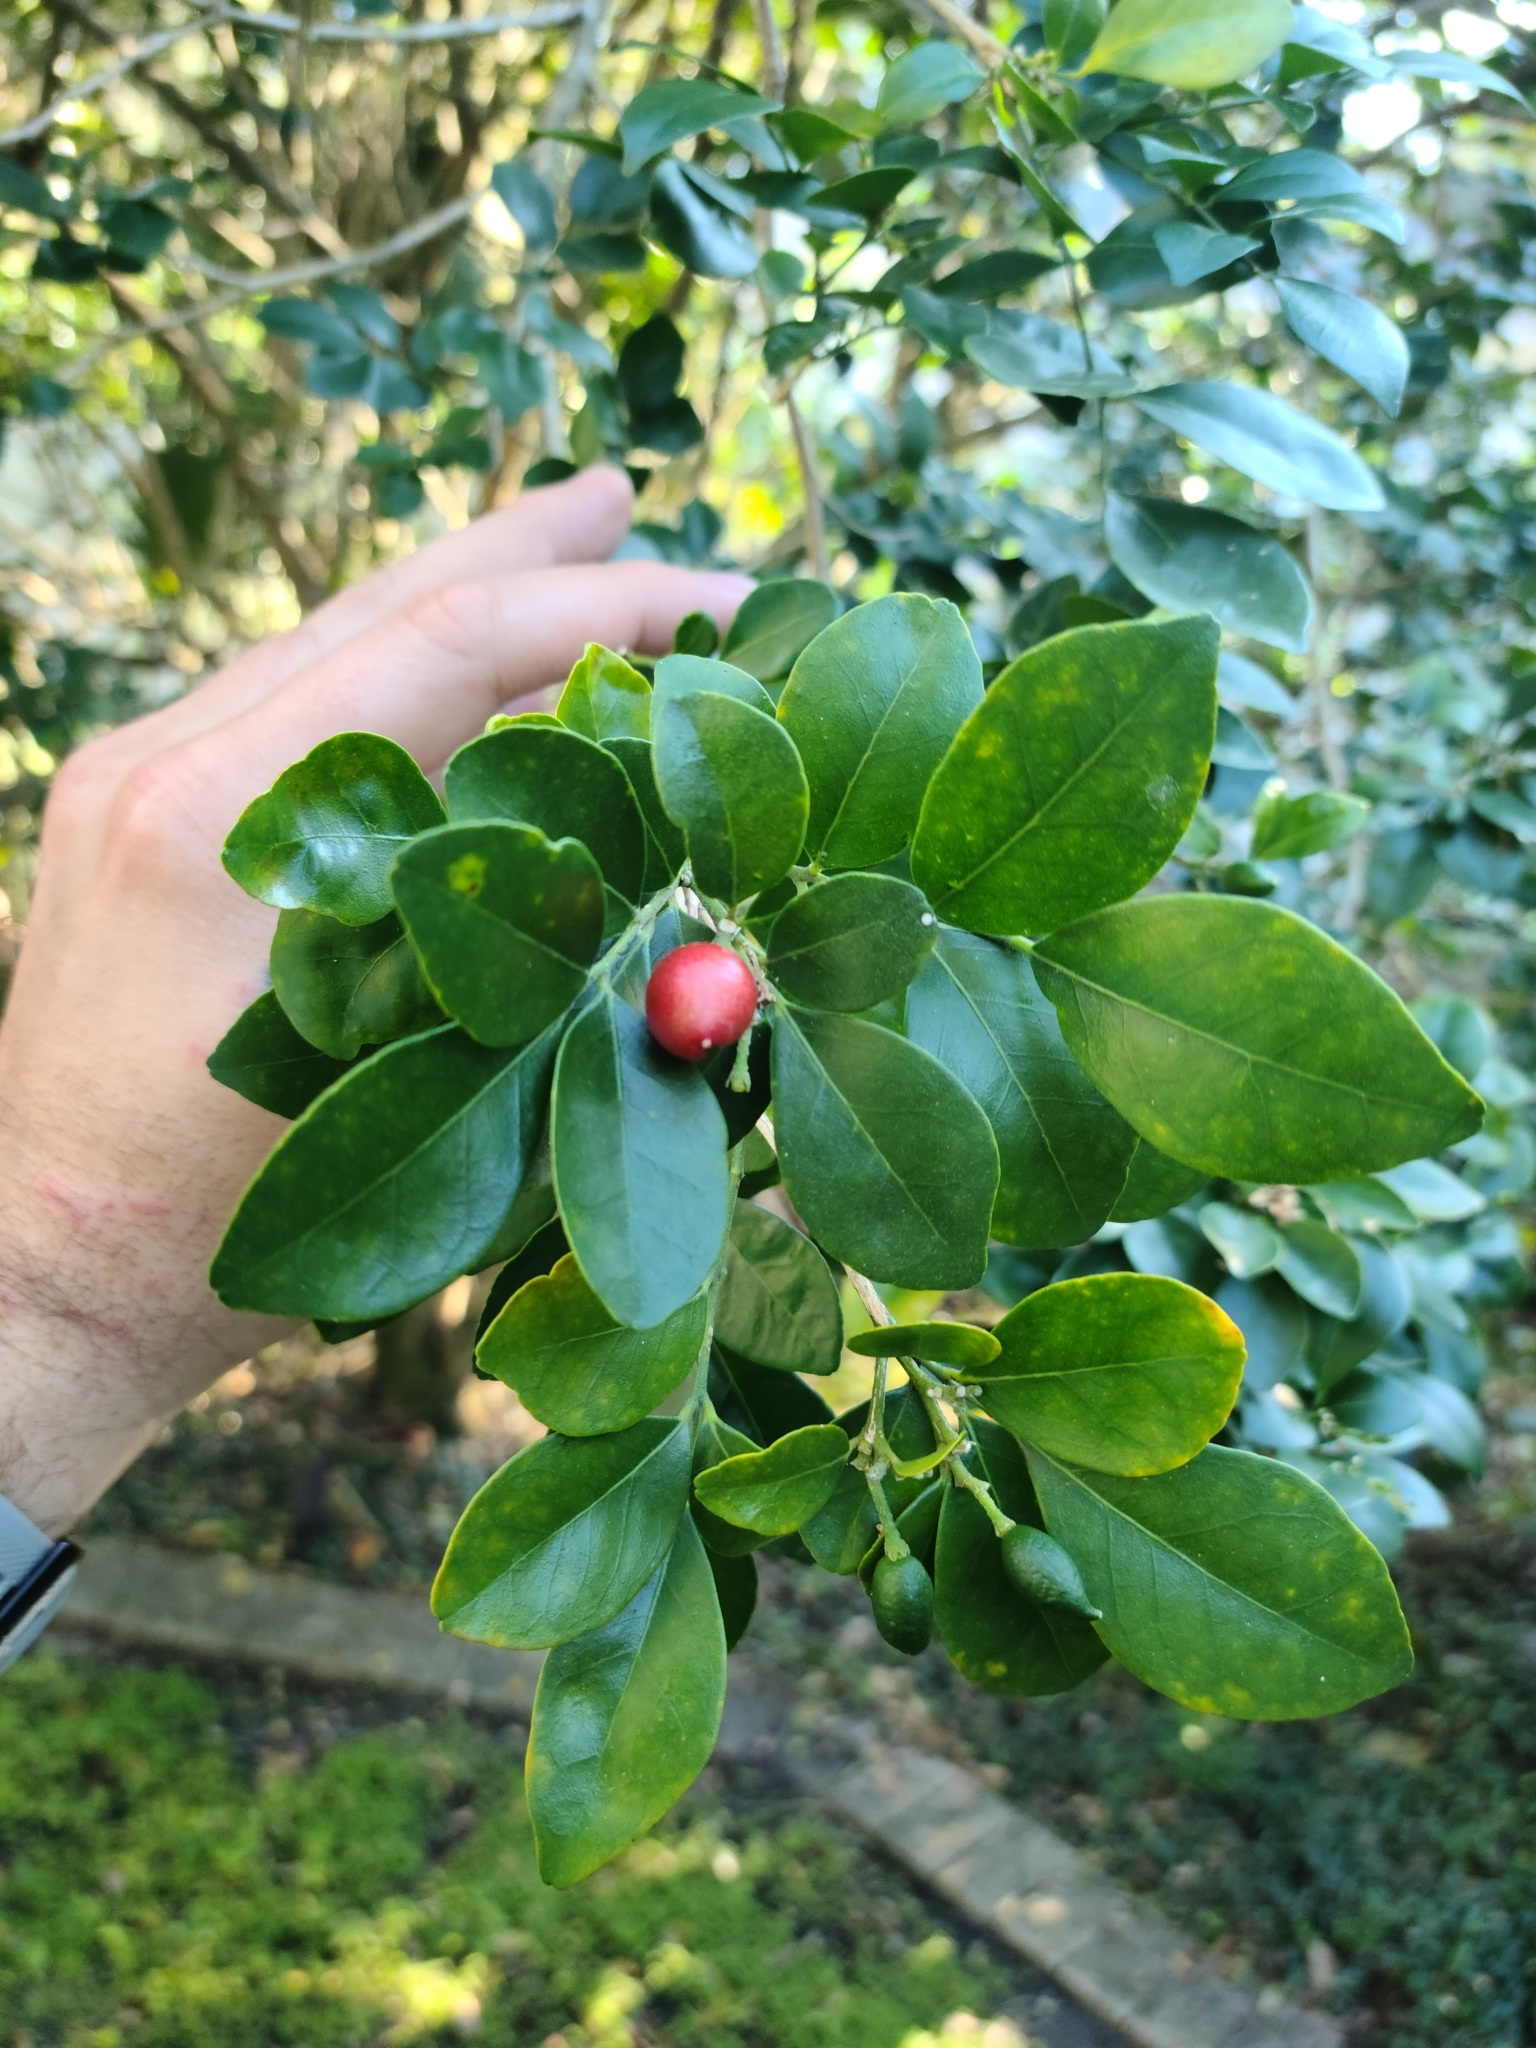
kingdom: Plantae
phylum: Tracheophyta
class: Magnoliopsida
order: Sapindales
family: Rutaceae
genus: Murraya
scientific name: Murraya paniculata
